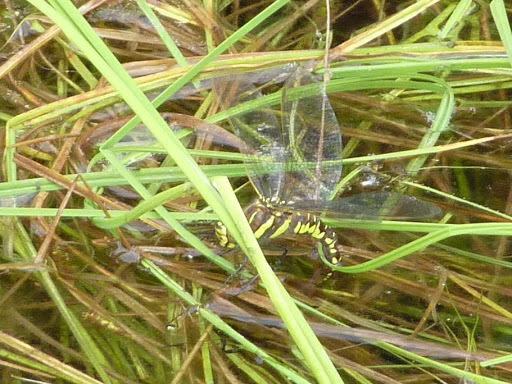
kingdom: Animalia
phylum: Arthropoda
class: Insecta
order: Odonata
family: Aeshnidae
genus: Aeshna
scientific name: Aeshna juncea
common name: Moorland hawker
